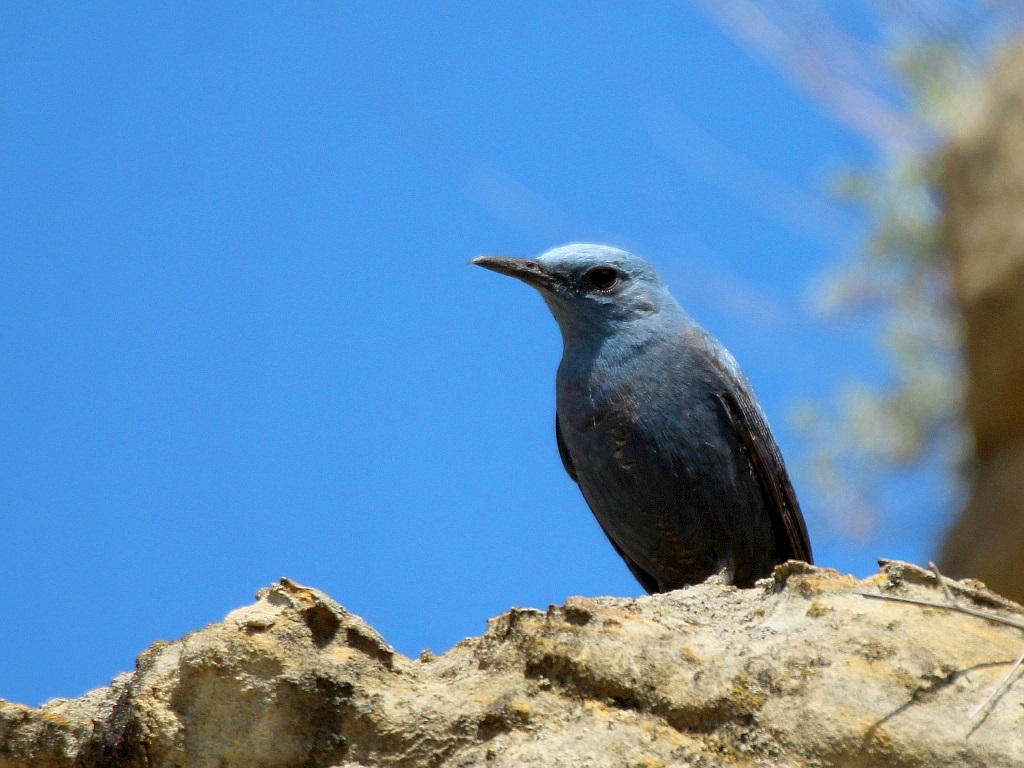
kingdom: Animalia
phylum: Chordata
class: Aves
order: Passeriformes
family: Muscicapidae
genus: Monticola
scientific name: Monticola solitarius
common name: Blue rock thrush
